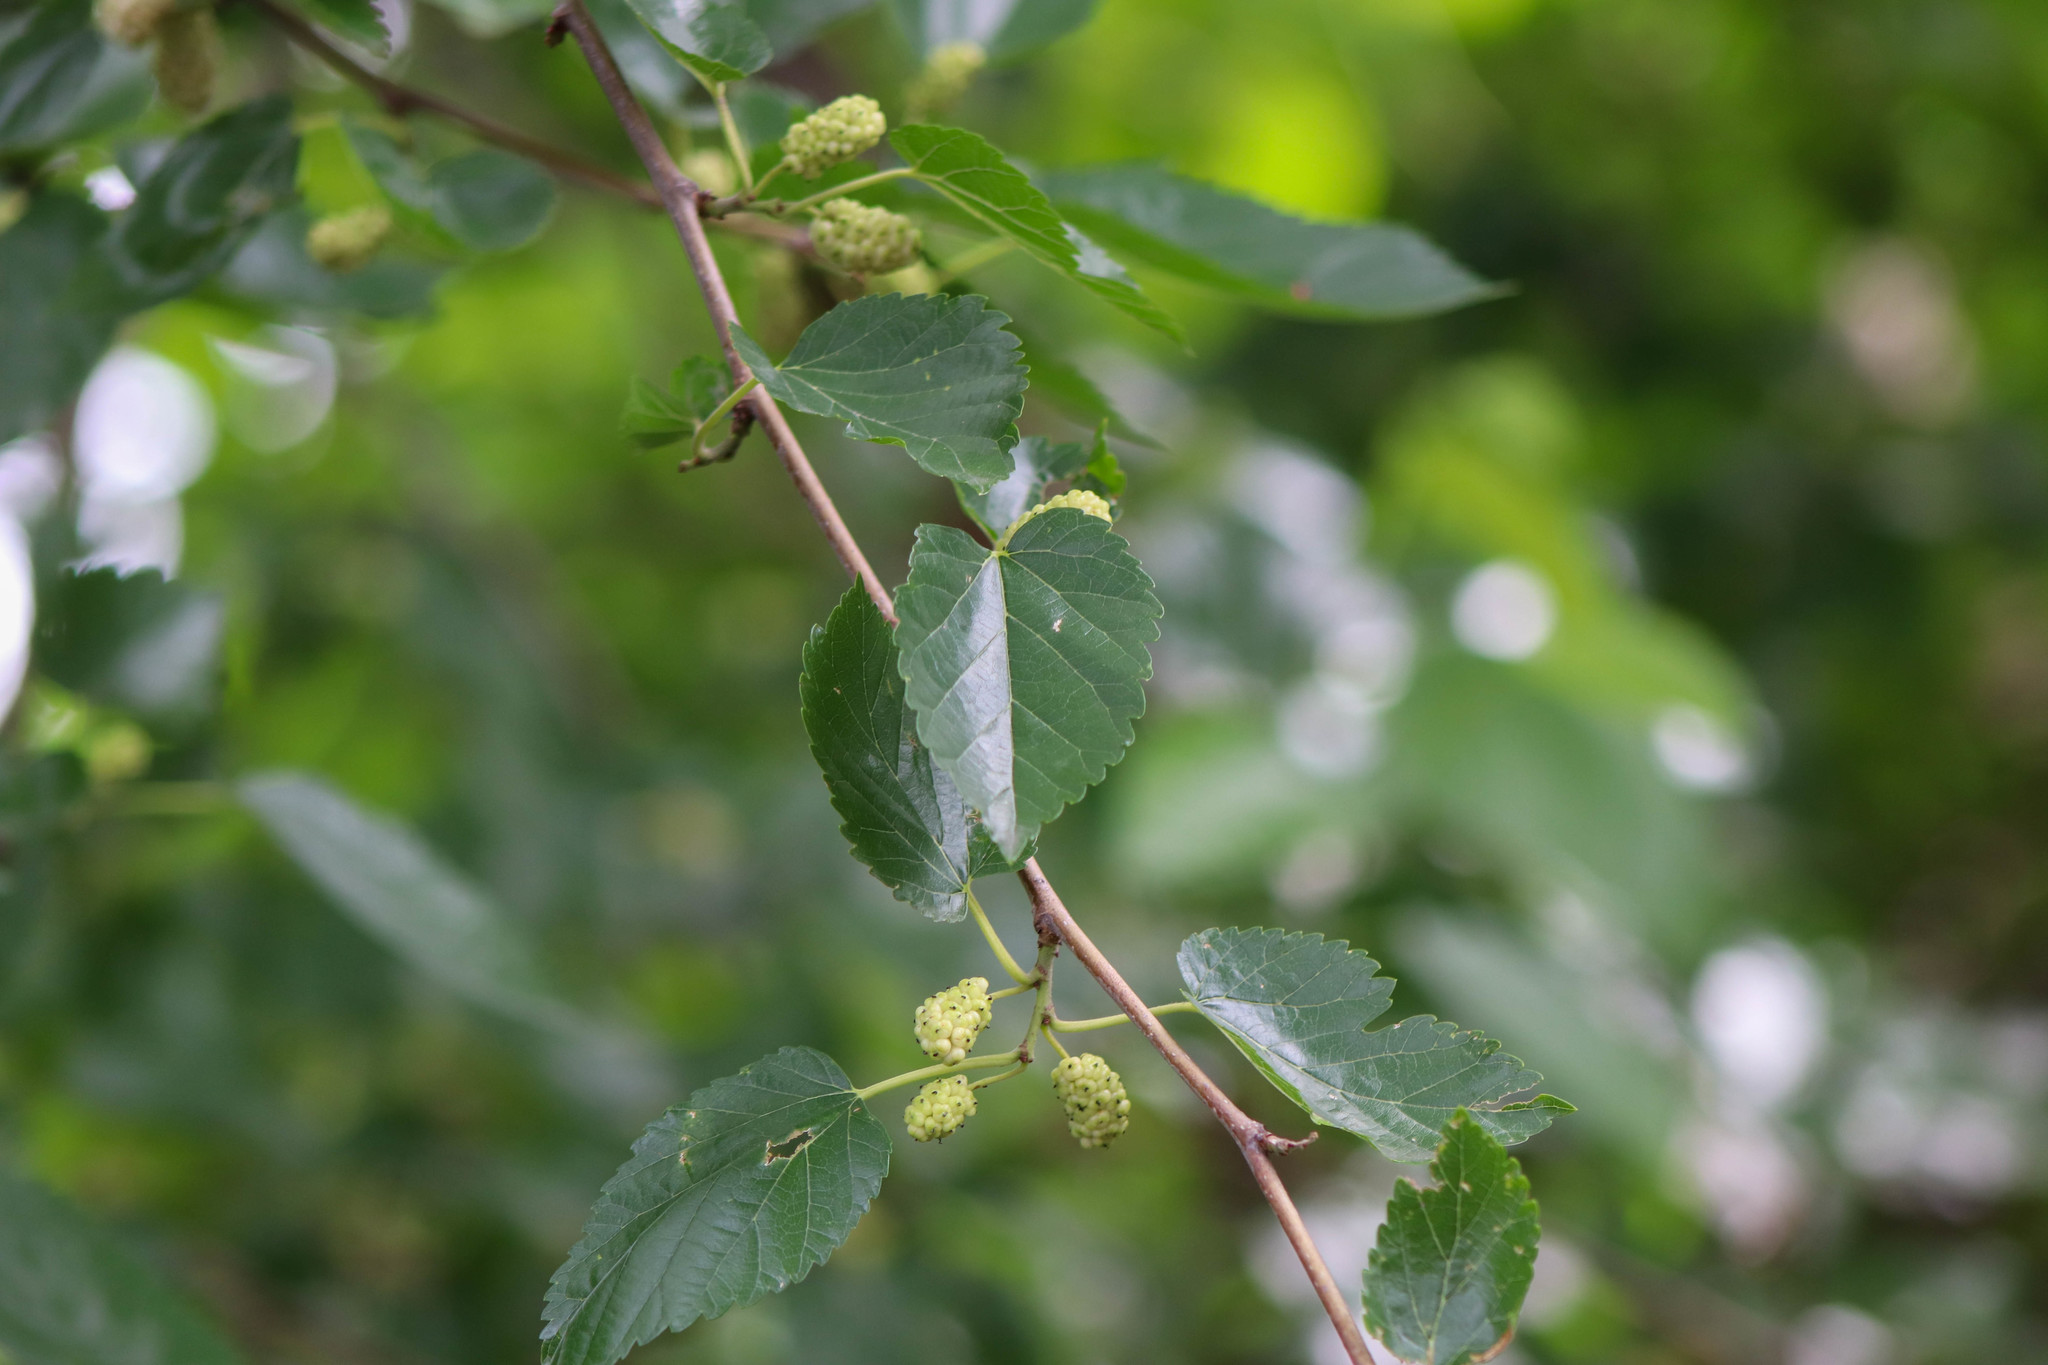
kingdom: Plantae
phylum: Tracheophyta
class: Magnoliopsida
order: Rosales
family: Moraceae
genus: Morus
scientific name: Morus alba
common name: White mulberry
